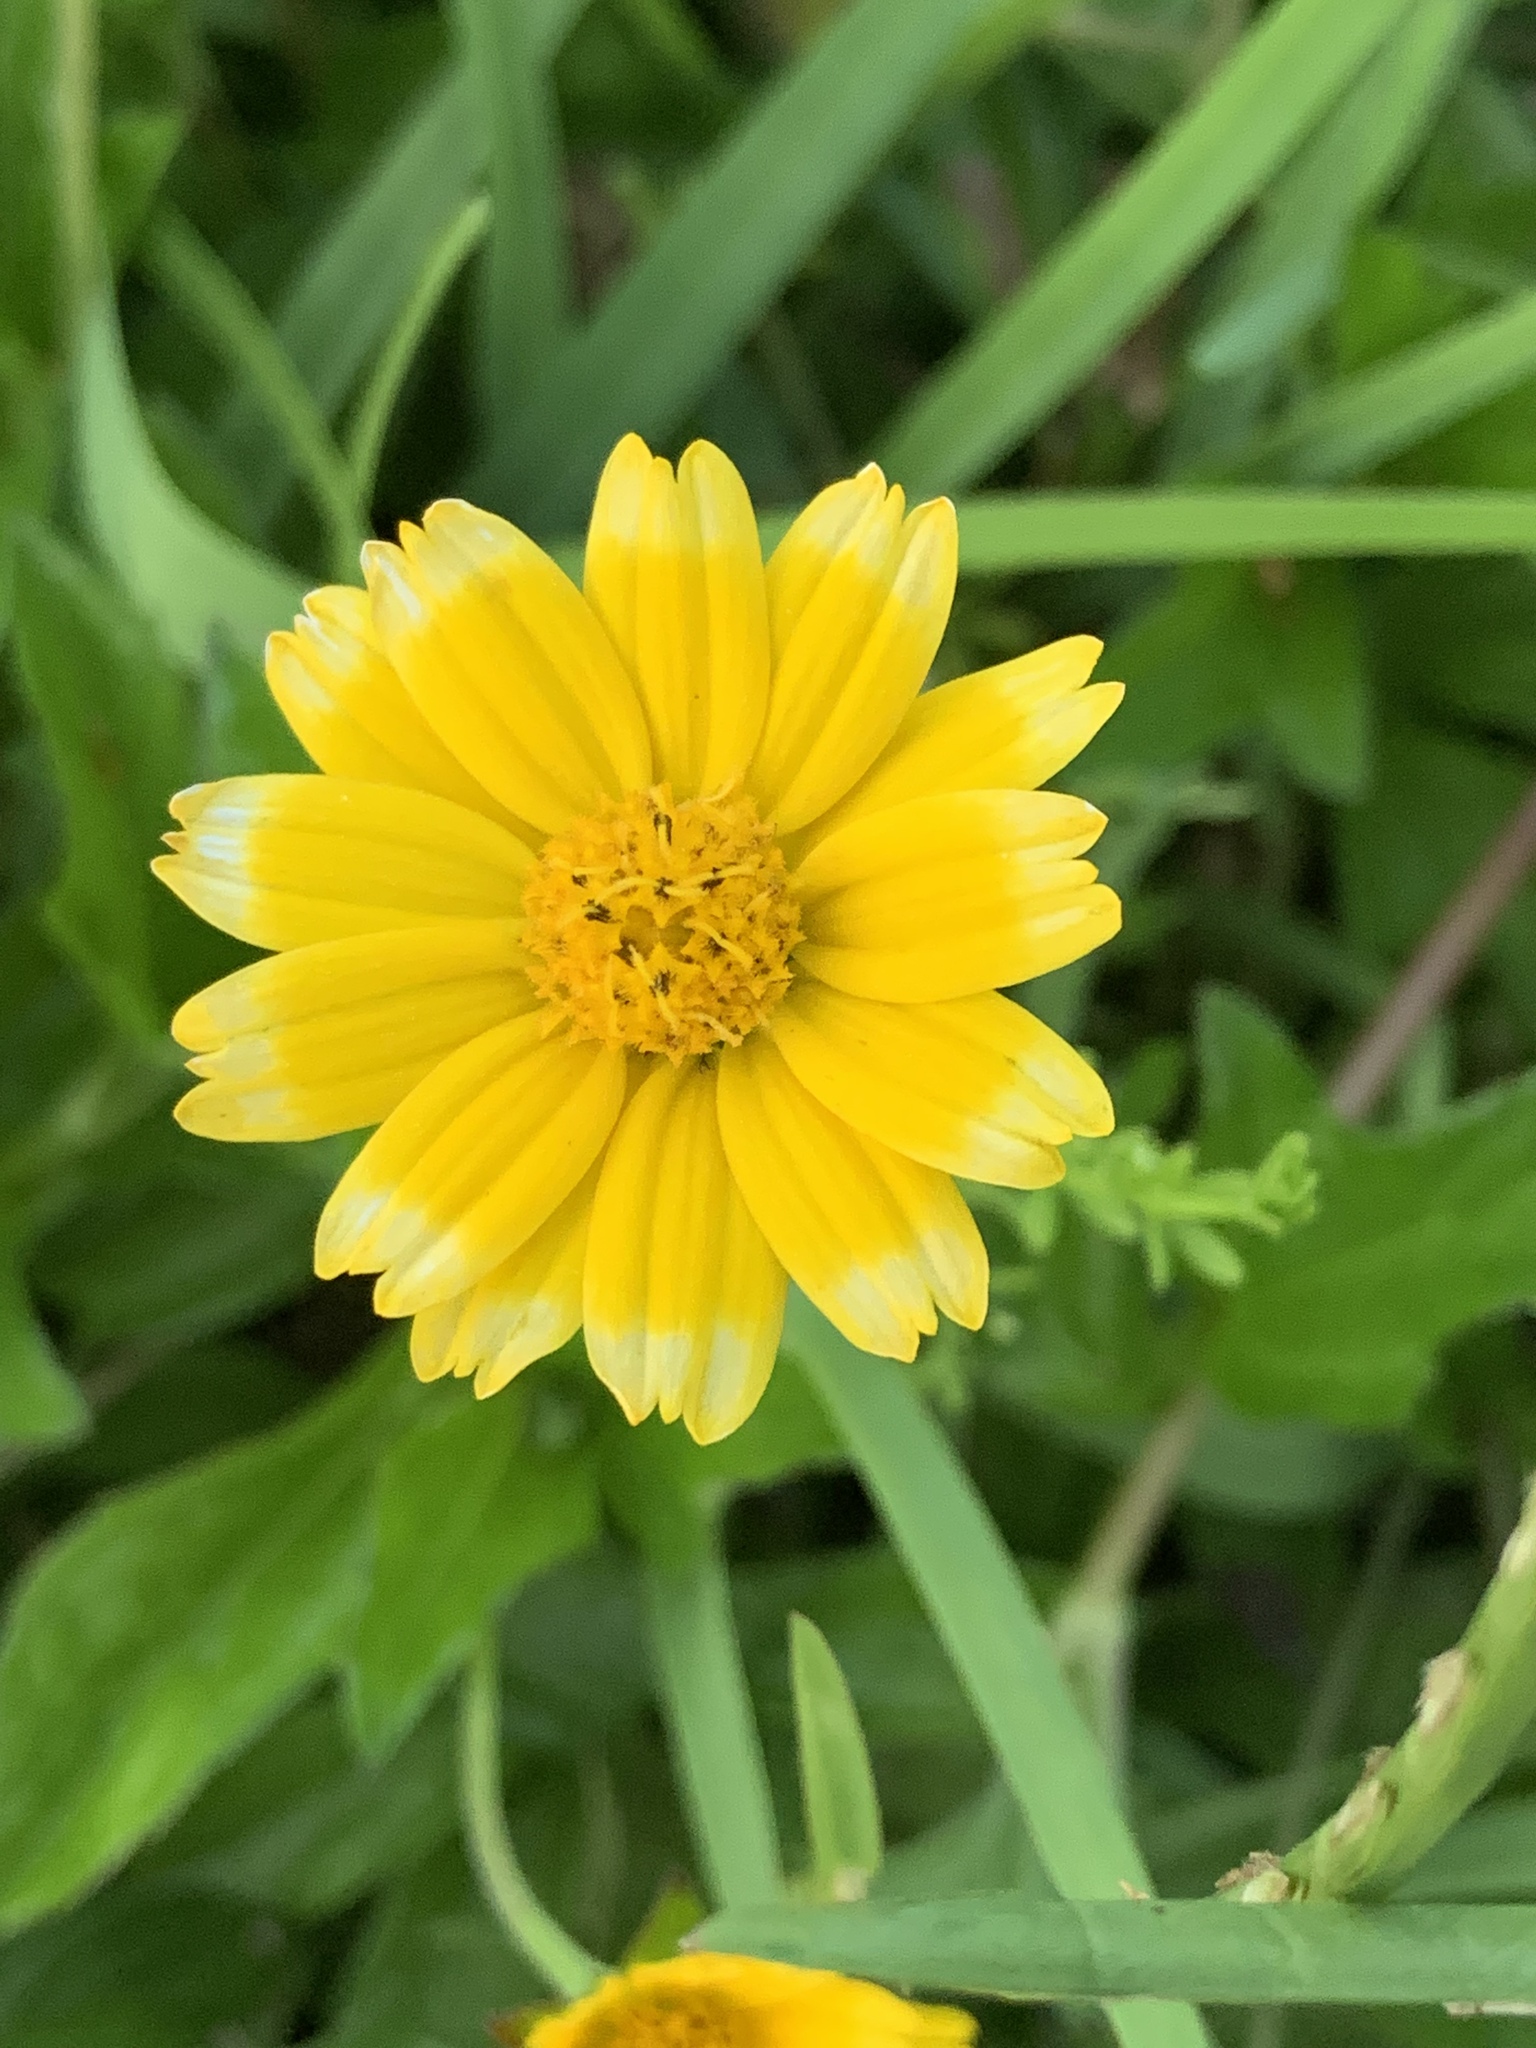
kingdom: Plantae
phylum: Tracheophyta
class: Magnoliopsida
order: Asterales
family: Asteraceae
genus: Sphagneticola
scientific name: Sphagneticola trilobata
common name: Bay biscayne creeping-oxeye
